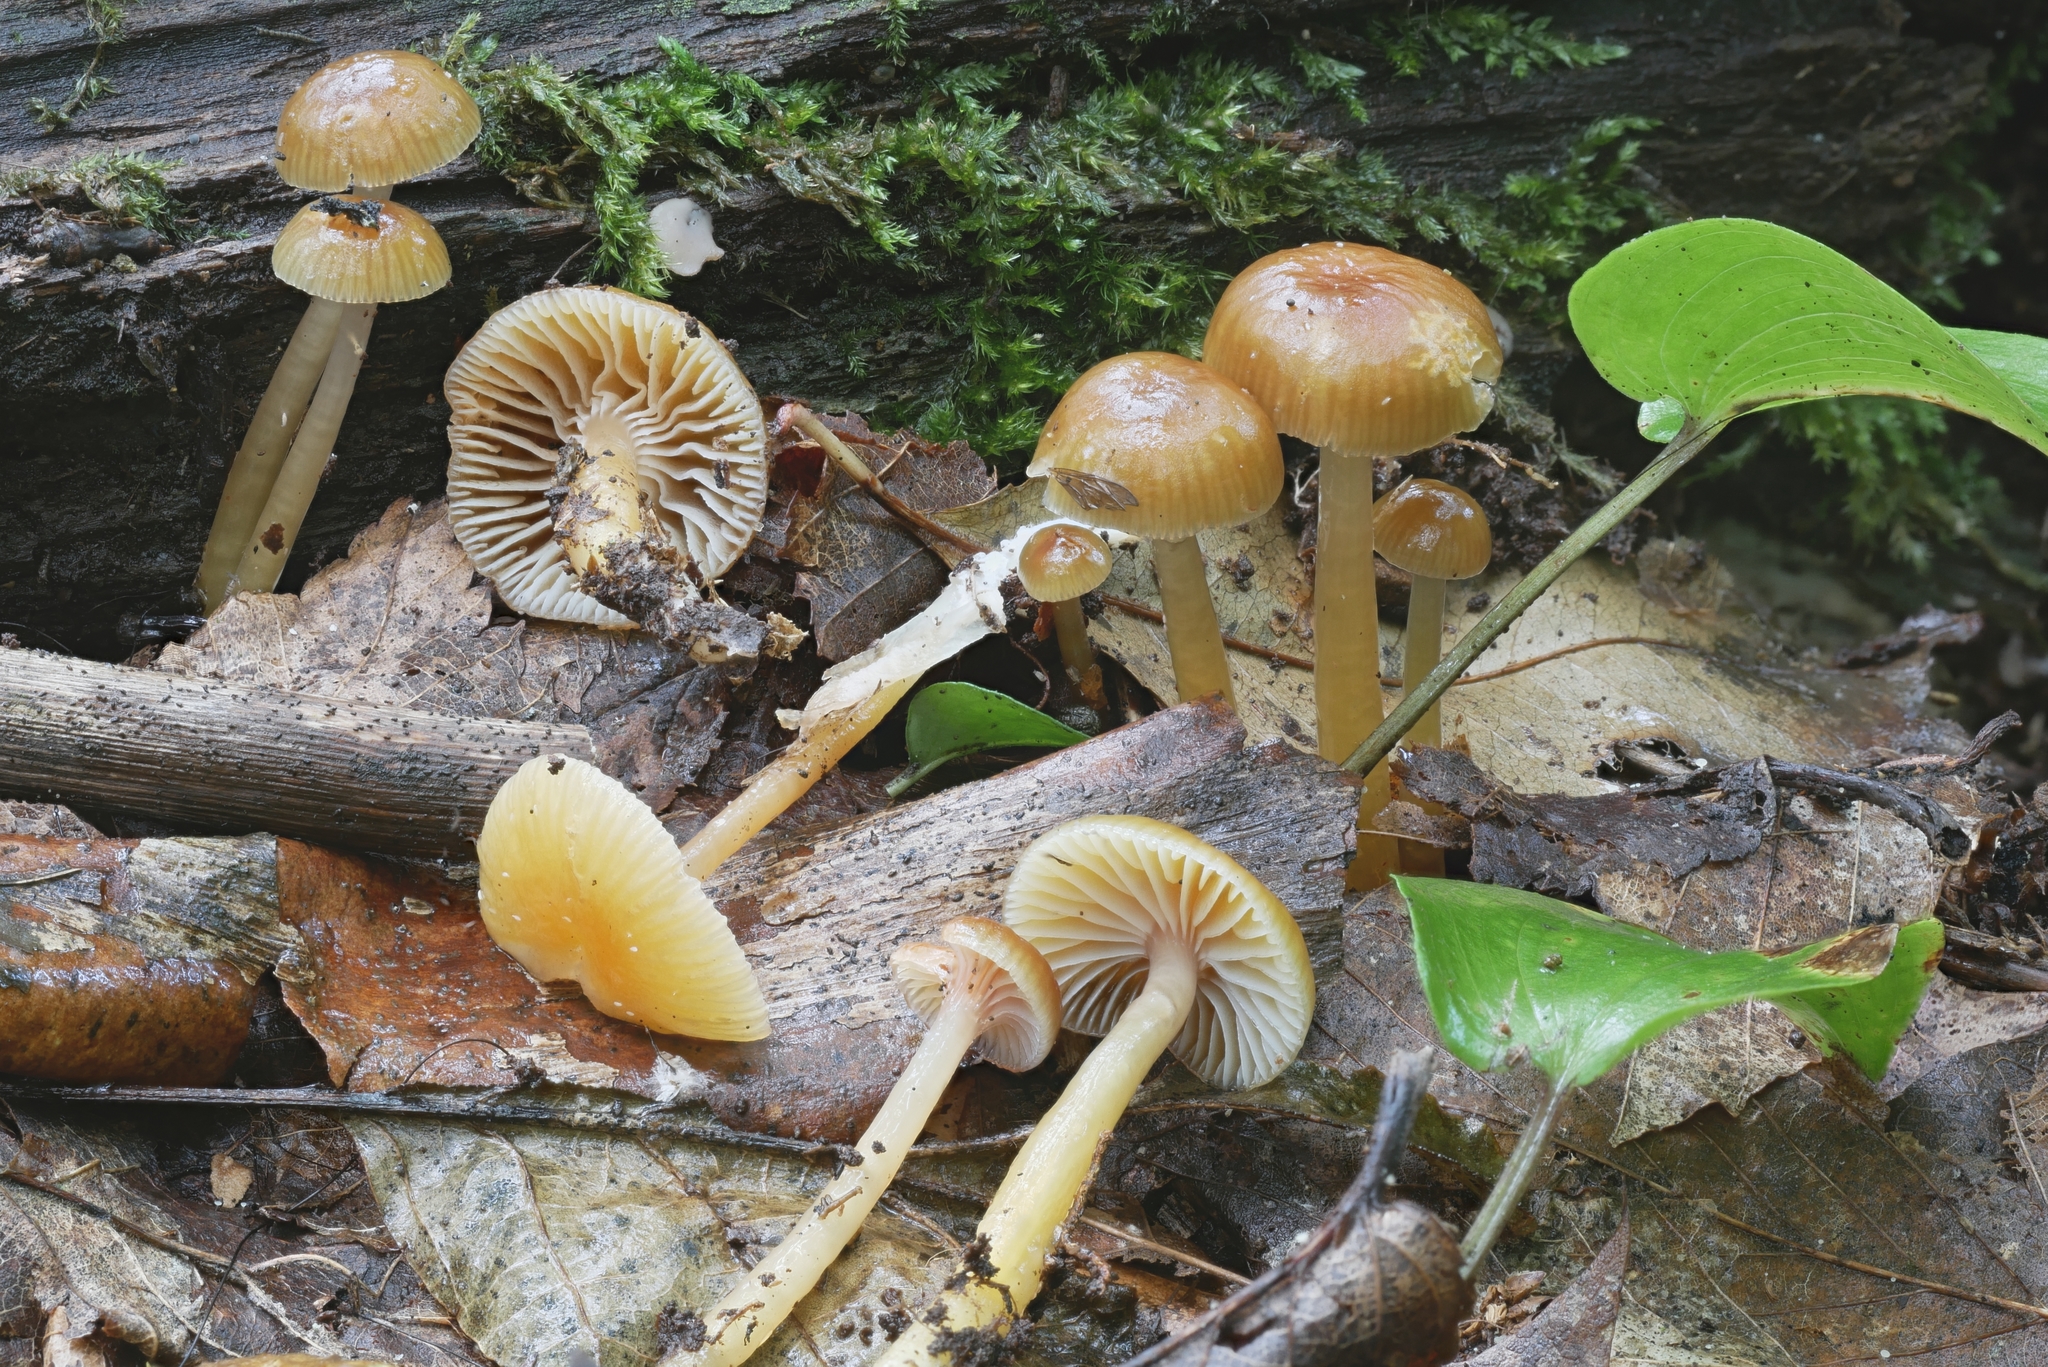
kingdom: Fungi
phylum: Basidiomycota
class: Agaricomycetes
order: Agaricales
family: Hygrophoraceae
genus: Gliophorus
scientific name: Gliophorus laetus
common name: Heath waxcap
